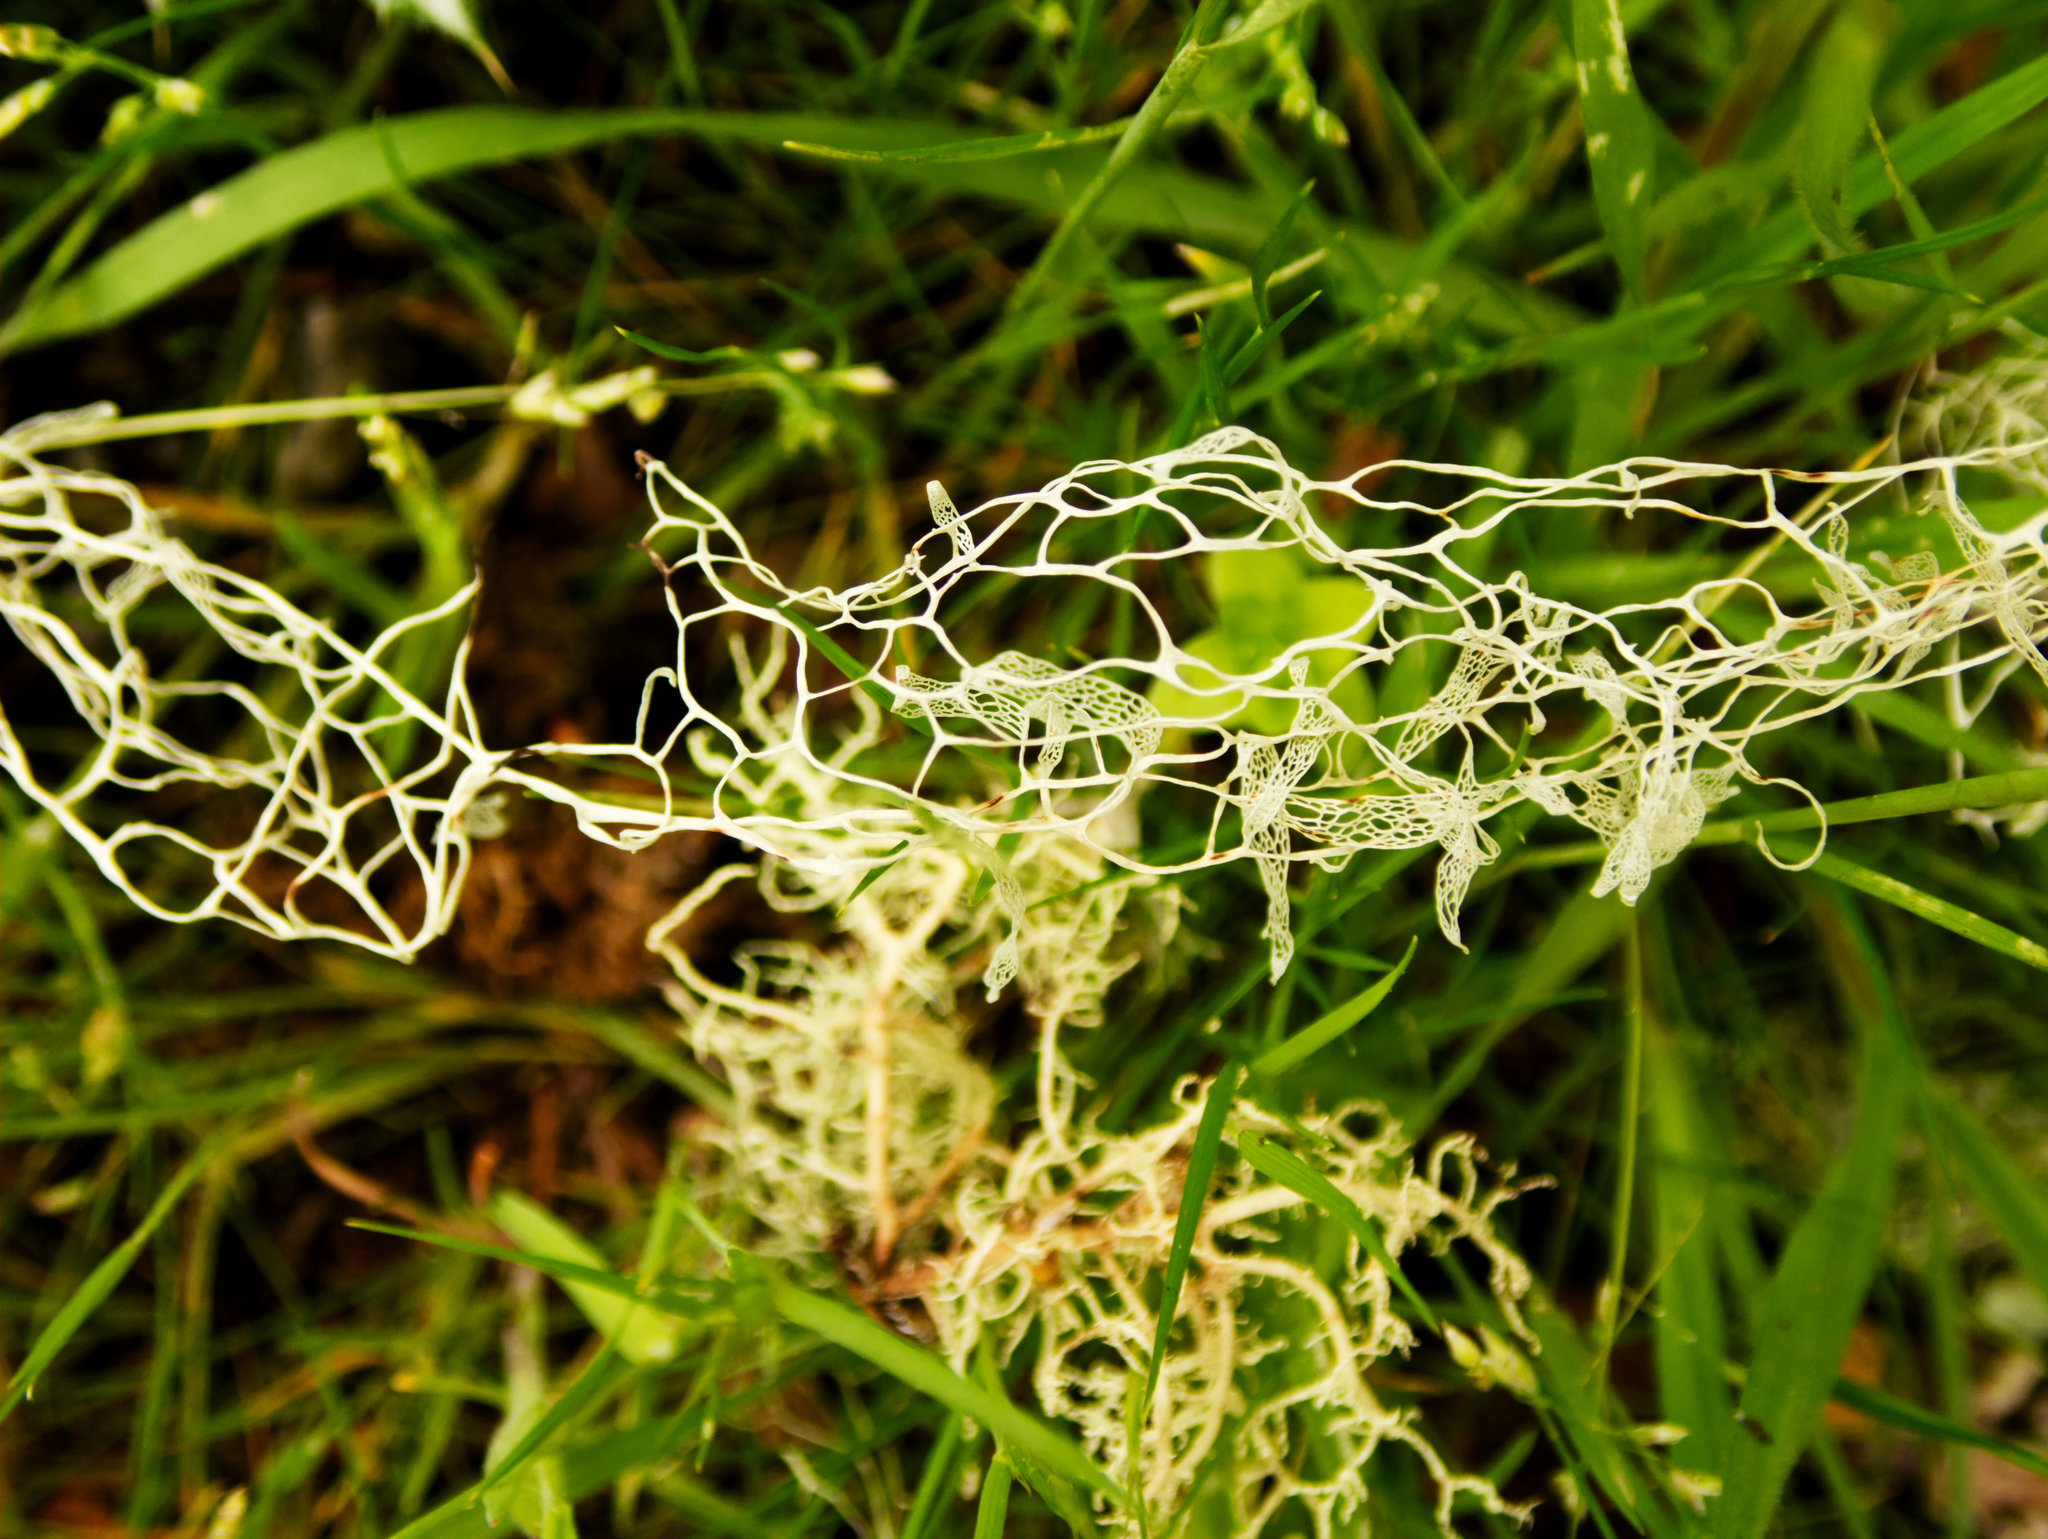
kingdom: Fungi
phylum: Ascomycota
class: Lecanoromycetes
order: Lecanorales
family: Ramalinaceae
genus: Ramalina
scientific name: Ramalina menziesii
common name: Lace lichen
